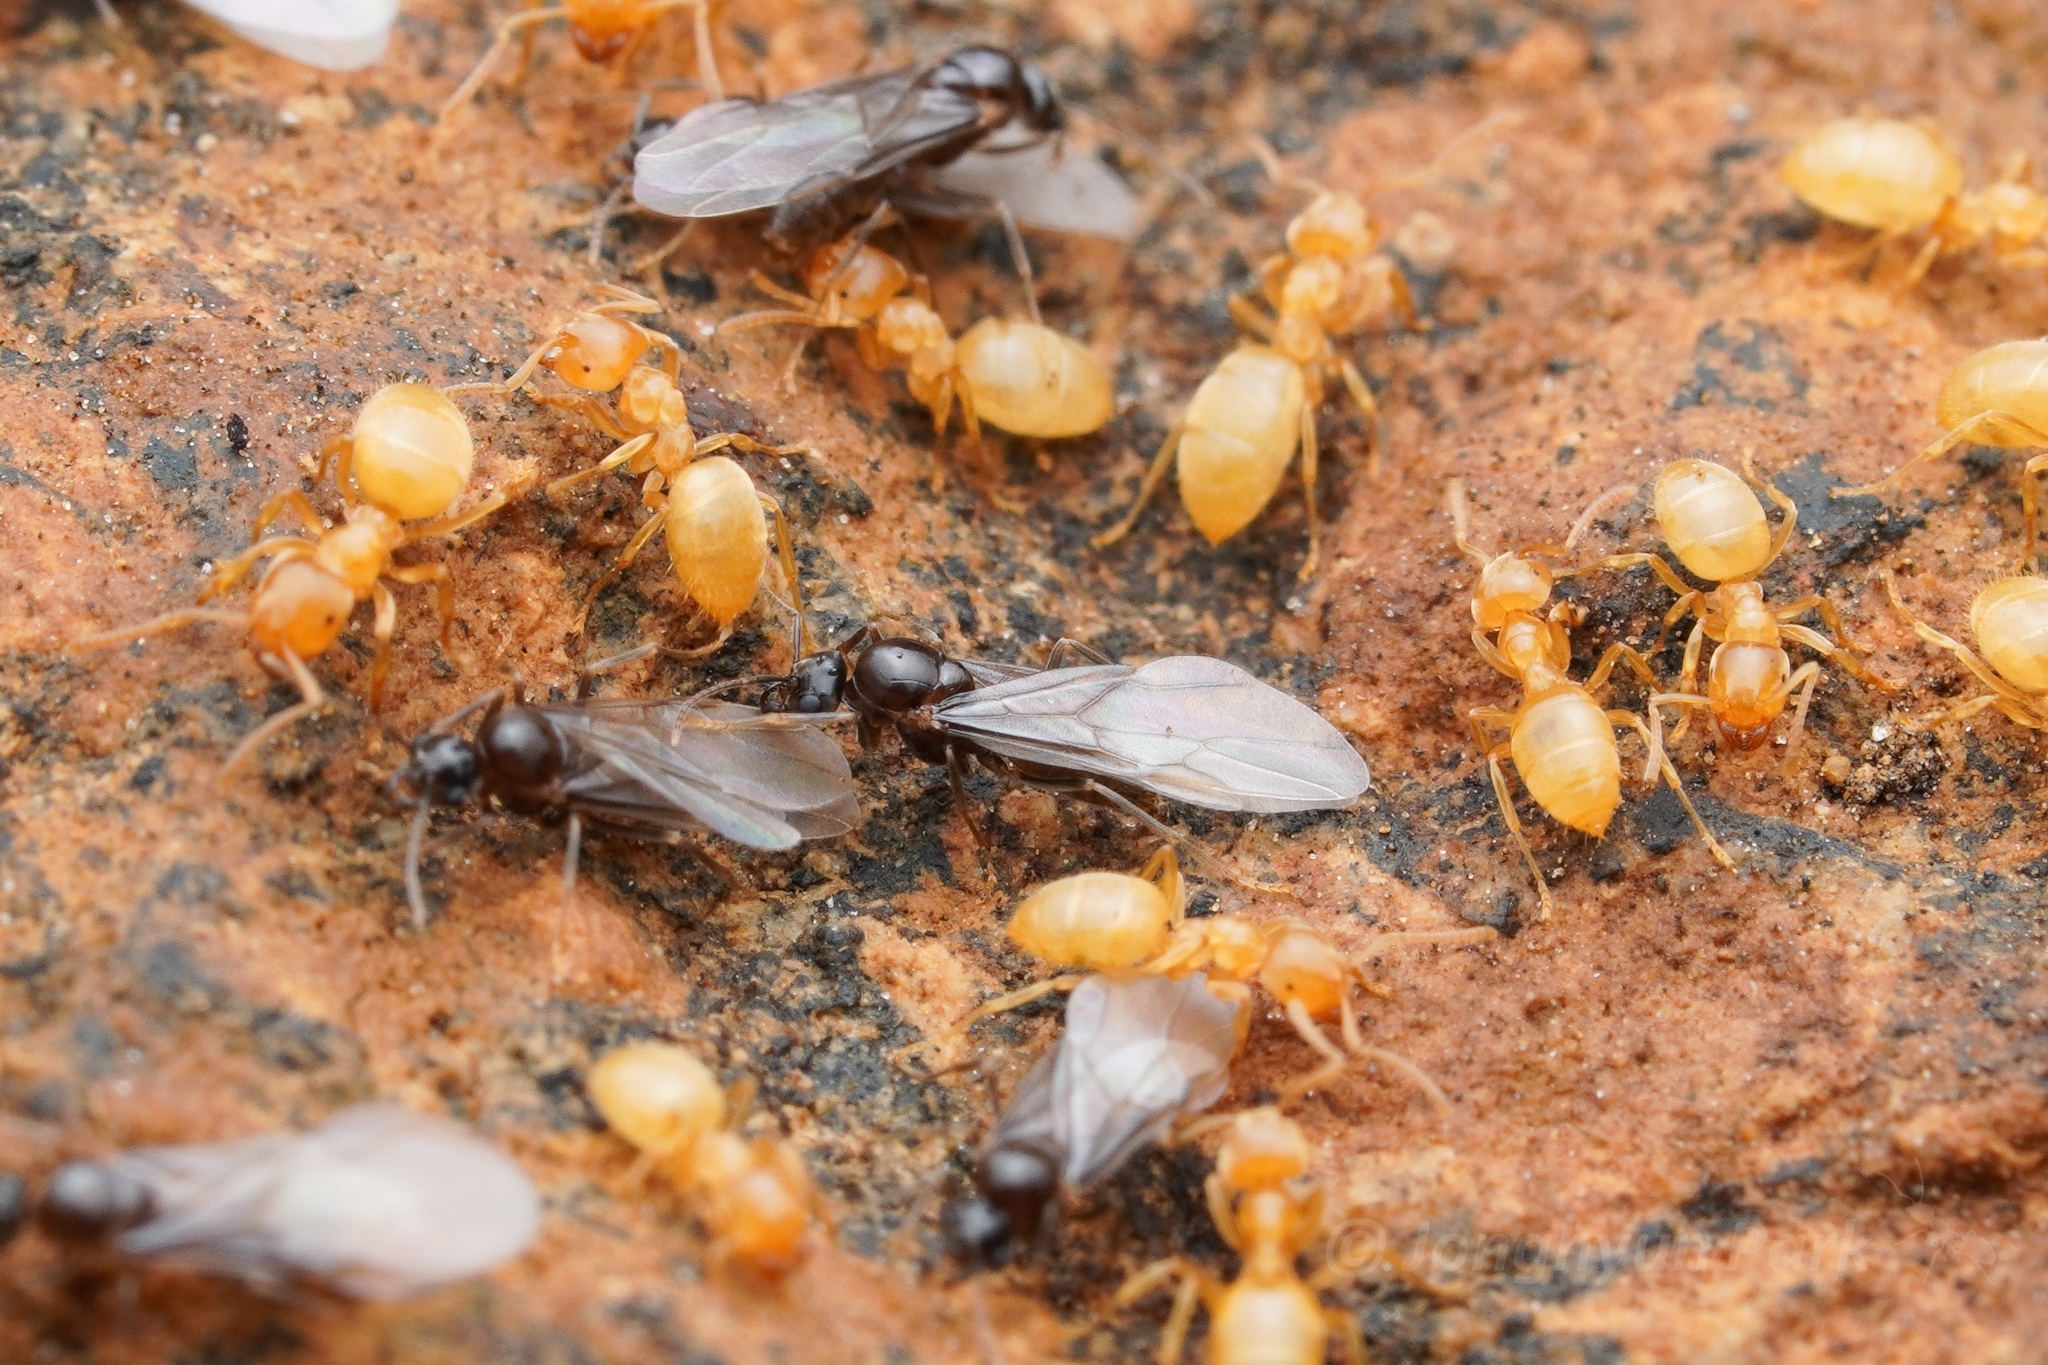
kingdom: Animalia
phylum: Arthropoda
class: Insecta
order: Hymenoptera
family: Formicidae
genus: Lasius
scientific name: Lasius nearcticus
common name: New world fuzzy ant
